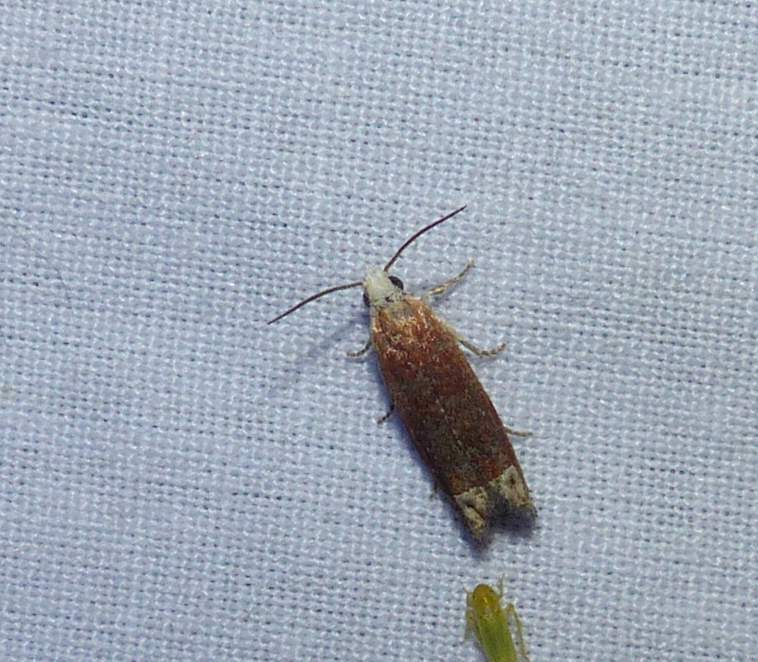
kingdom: Animalia
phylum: Arthropoda
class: Insecta
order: Lepidoptera
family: Tortricidae
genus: Eucosma
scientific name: Eucosma raracana
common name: Reddish eucosma moth
